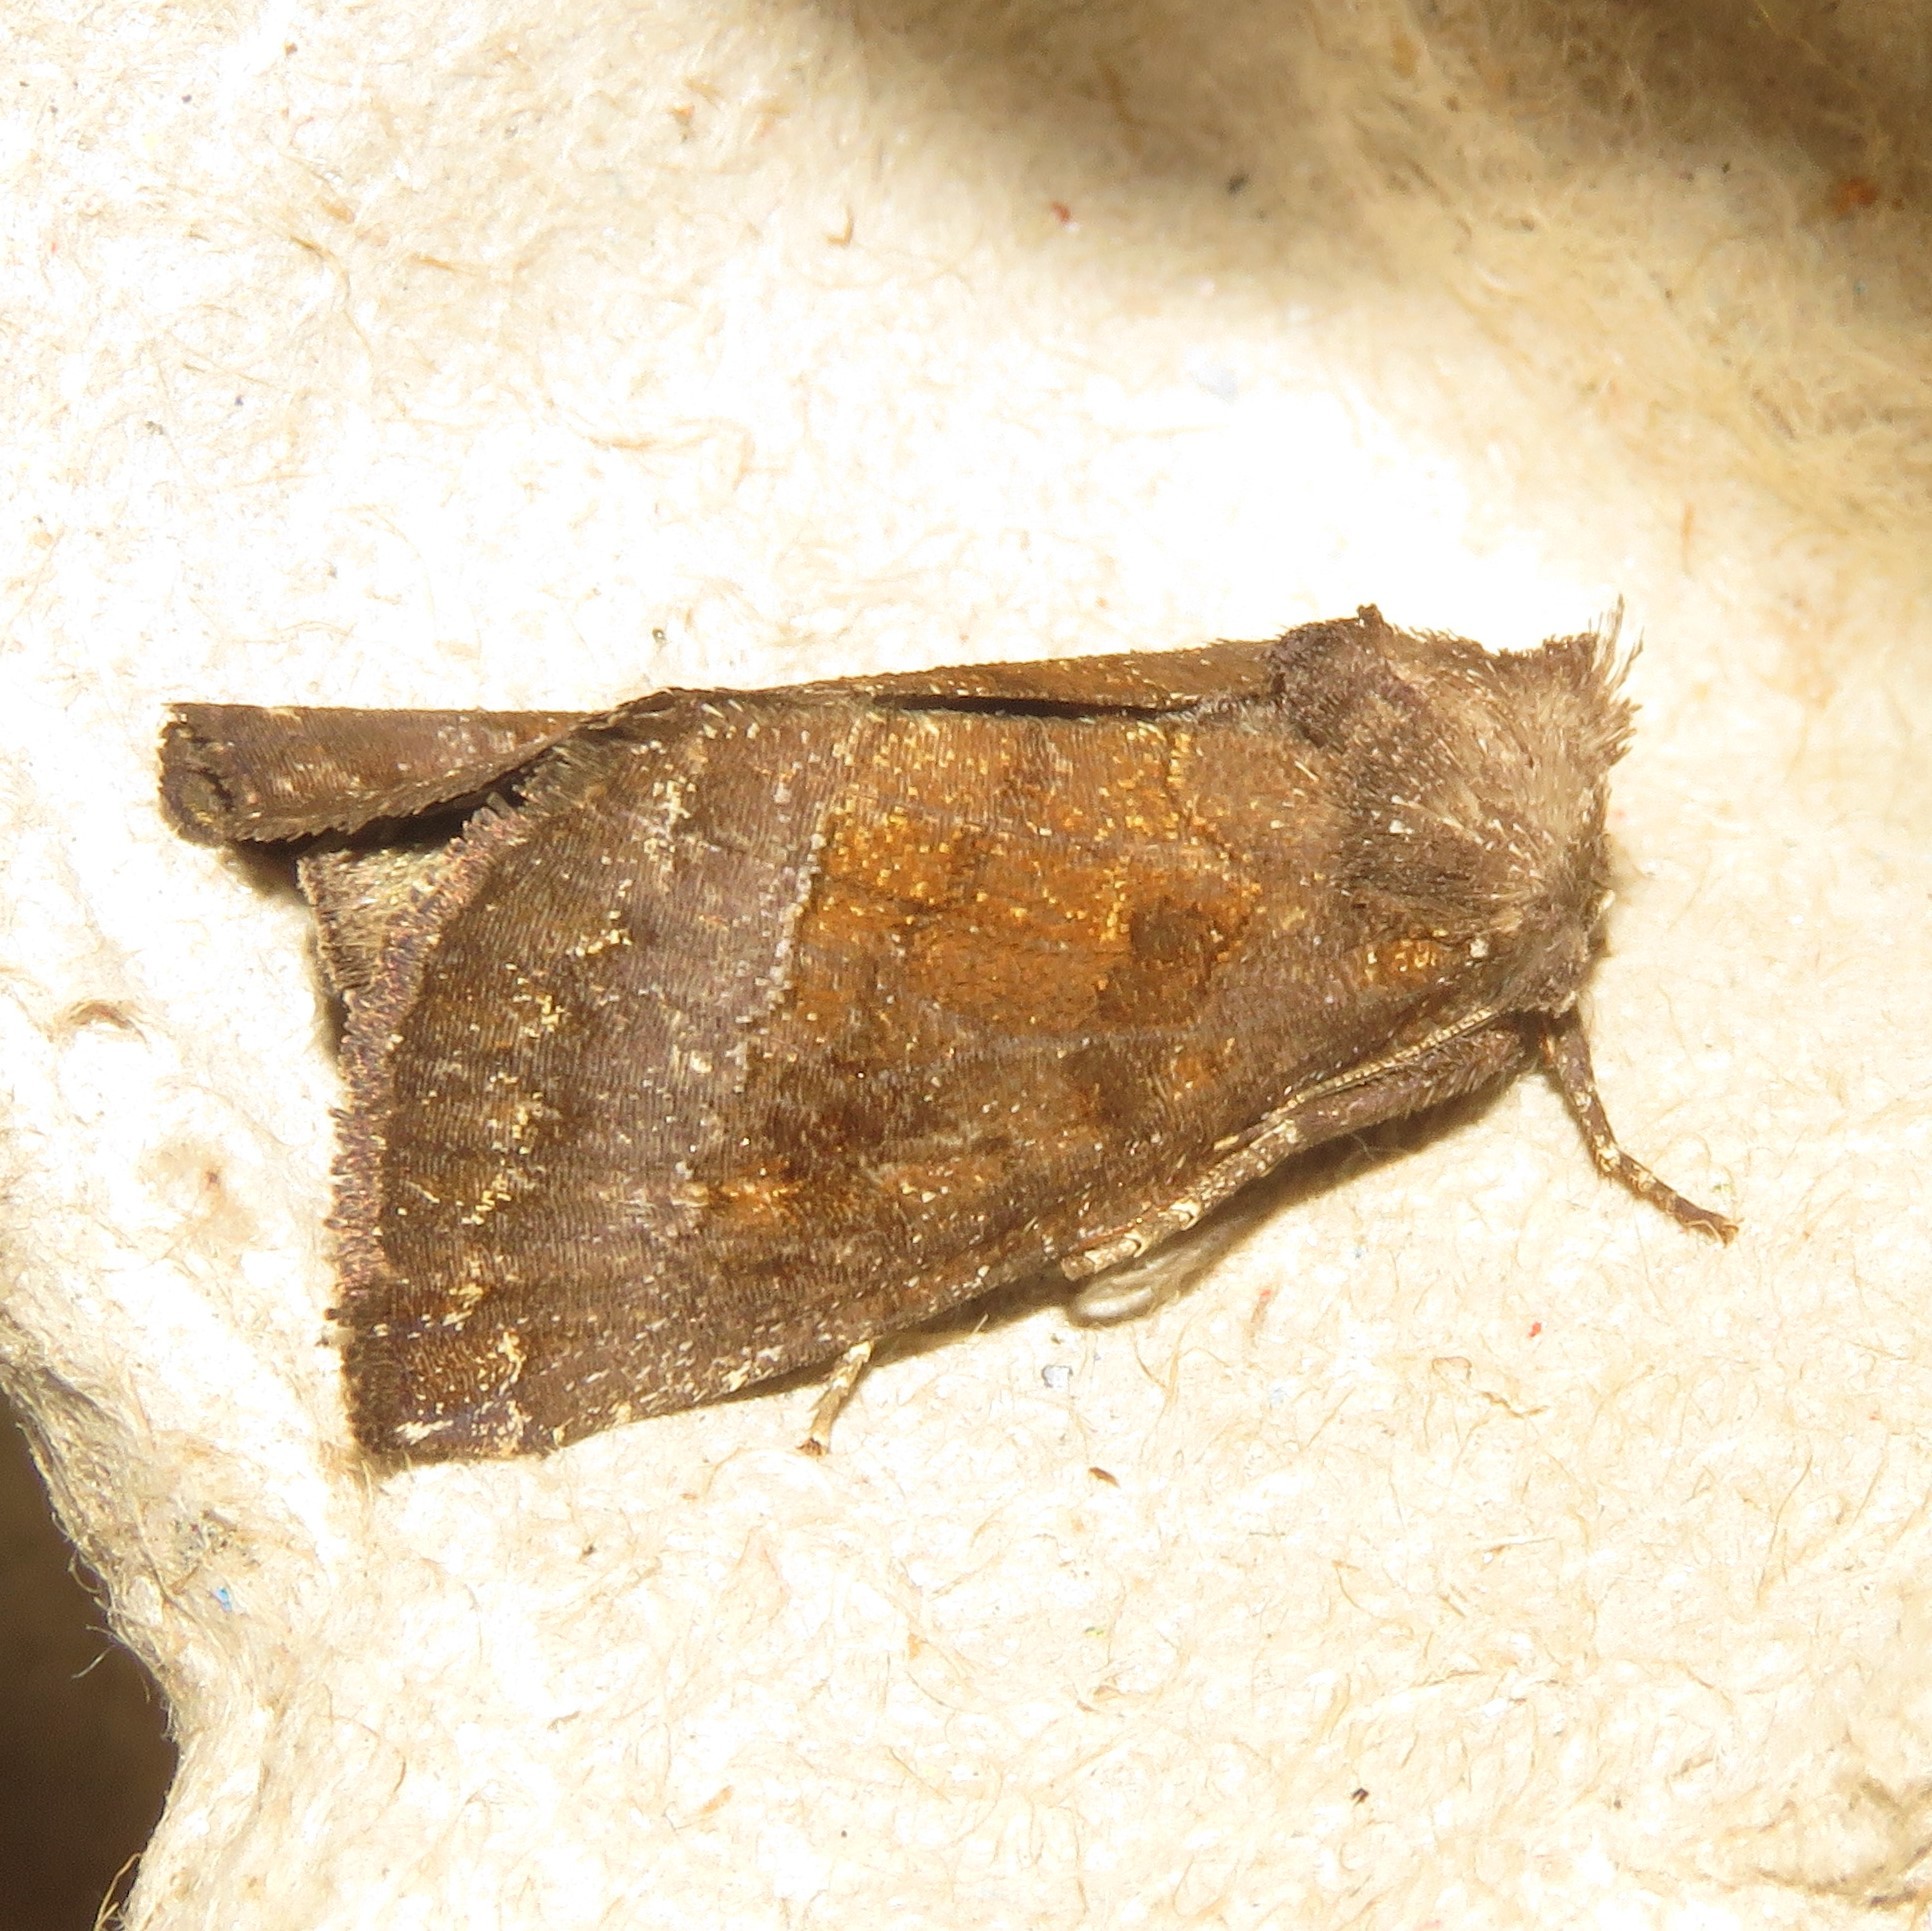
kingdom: Animalia
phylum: Arthropoda
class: Insecta
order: Lepidoptera
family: Noctuidae
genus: Papaipema
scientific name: Papaipema nelita
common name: Coneflower borer moth
